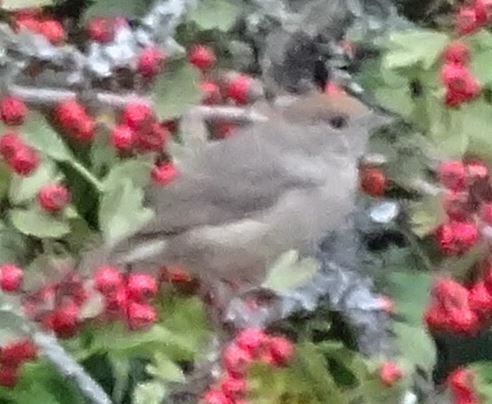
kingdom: Animalia
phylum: Chordata
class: Aves
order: Passeriformes
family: Sylviidae
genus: Sylvia
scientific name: Sylvia atricapilla
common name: Eurasian blackcap
